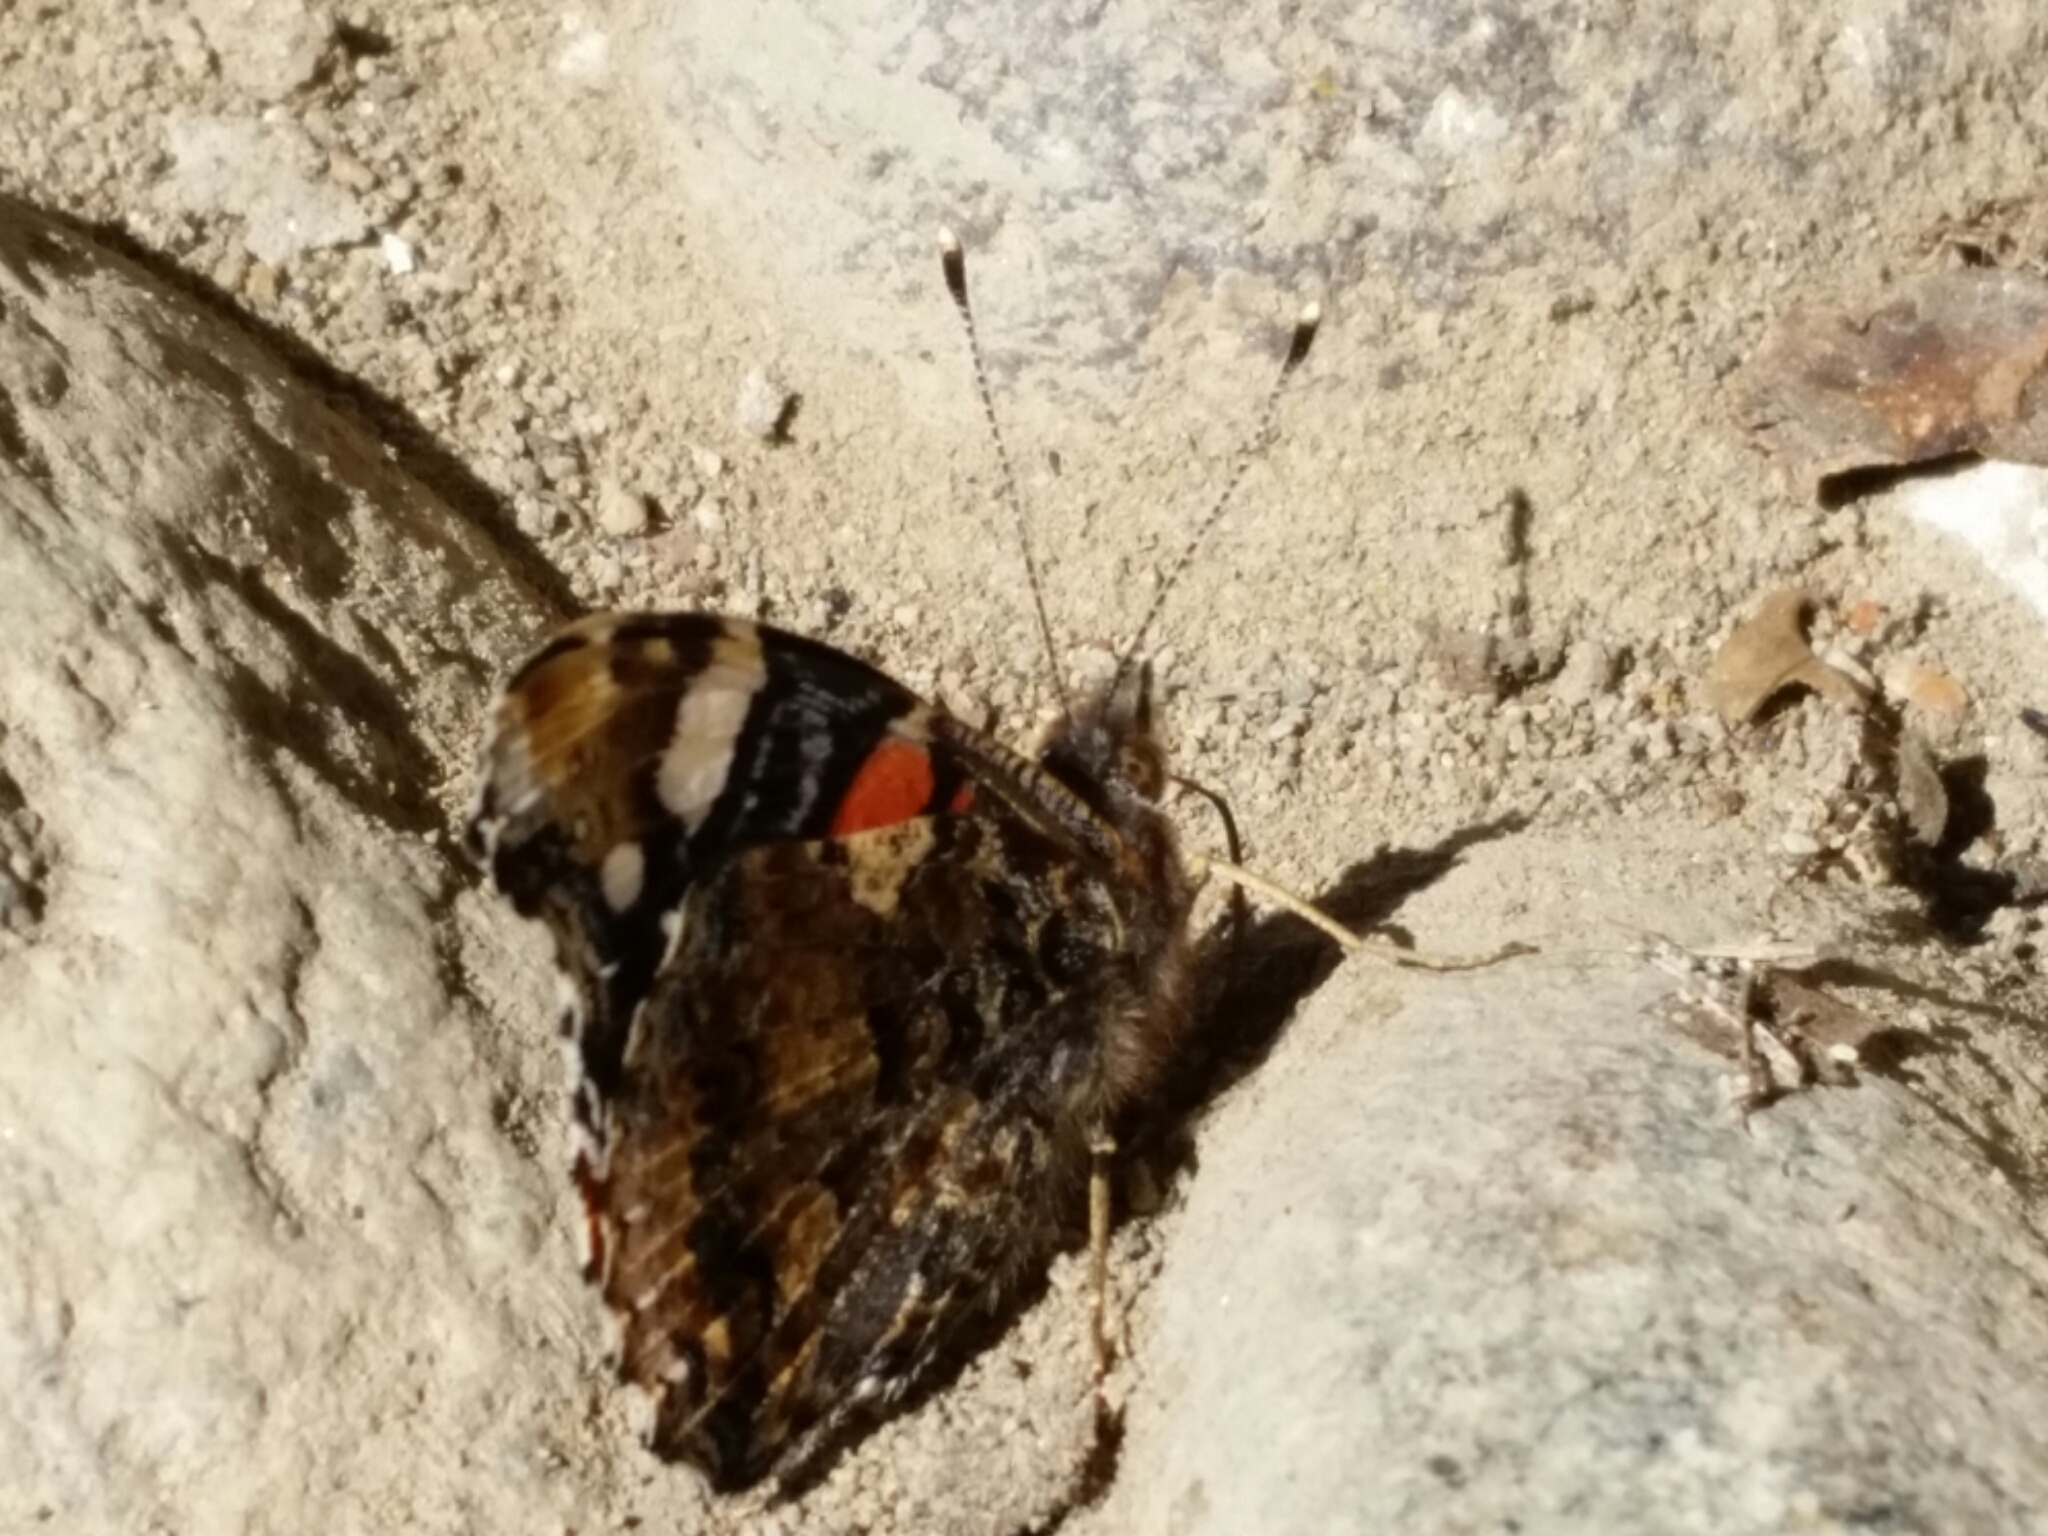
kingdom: Animalia
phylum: Arthropoda
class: Insecta
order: Lepidoptera
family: Nymphalidae
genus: Vanessa
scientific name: Vanessa atalanta
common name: Red admiral
